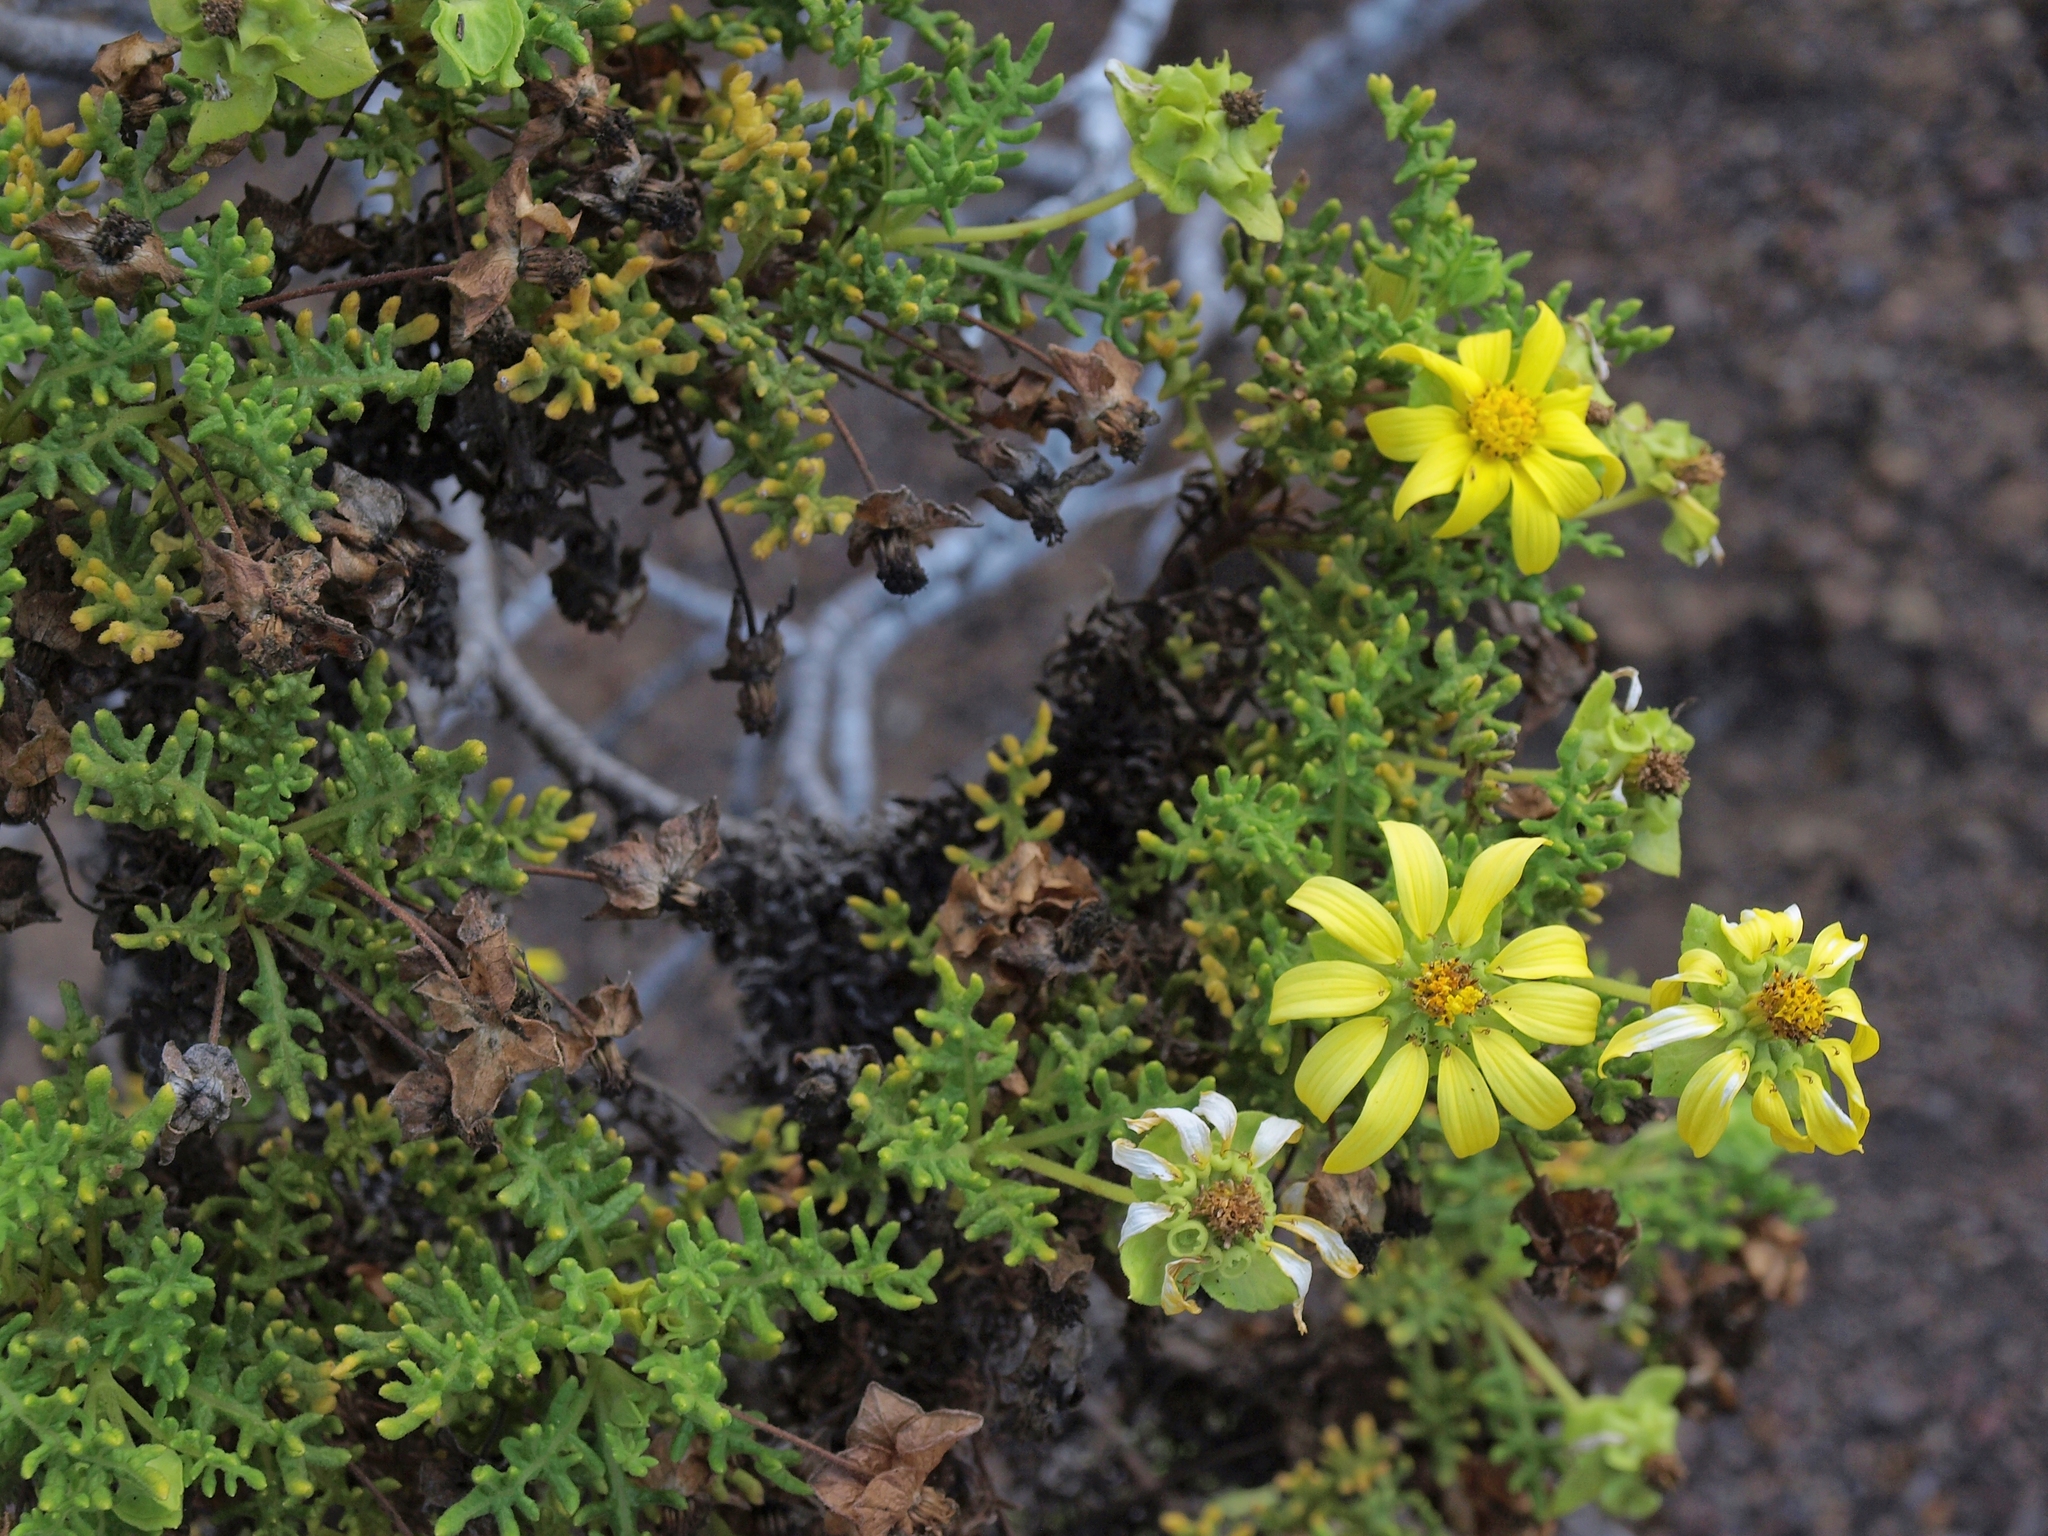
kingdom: Plantae
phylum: Tracheophyta
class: Magnoliopsida
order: Asterales
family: Asteraceae
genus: Lecocarpus
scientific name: Lecocarpus pinnatifidus
